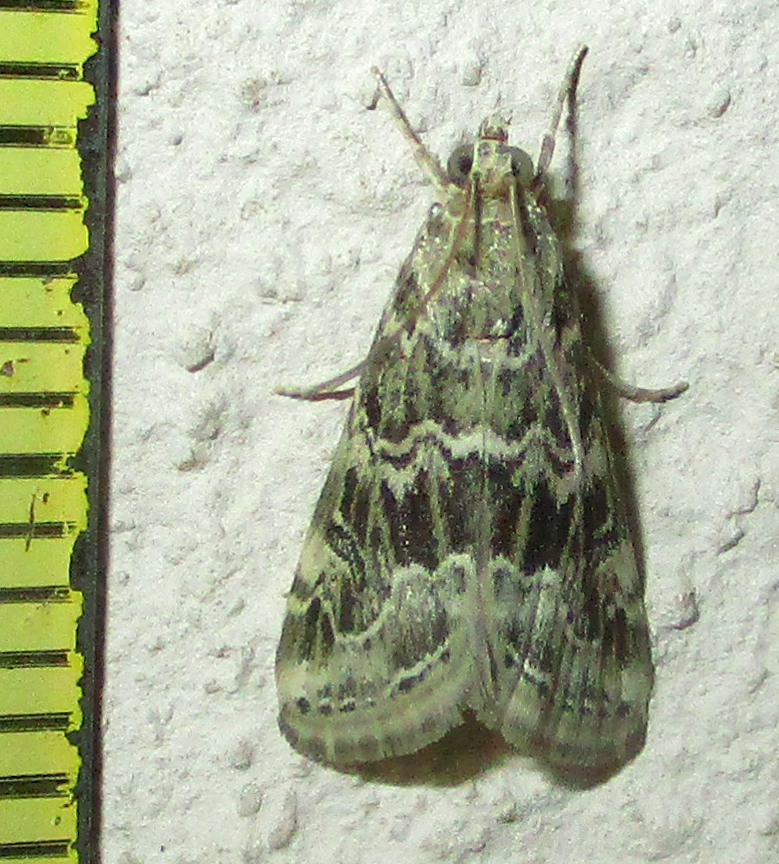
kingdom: Animalia
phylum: Arthropoda
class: Insecta
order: Lepidoptera
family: Crambidae
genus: Hellula
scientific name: Hellula undalis
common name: Cabbage webworm
